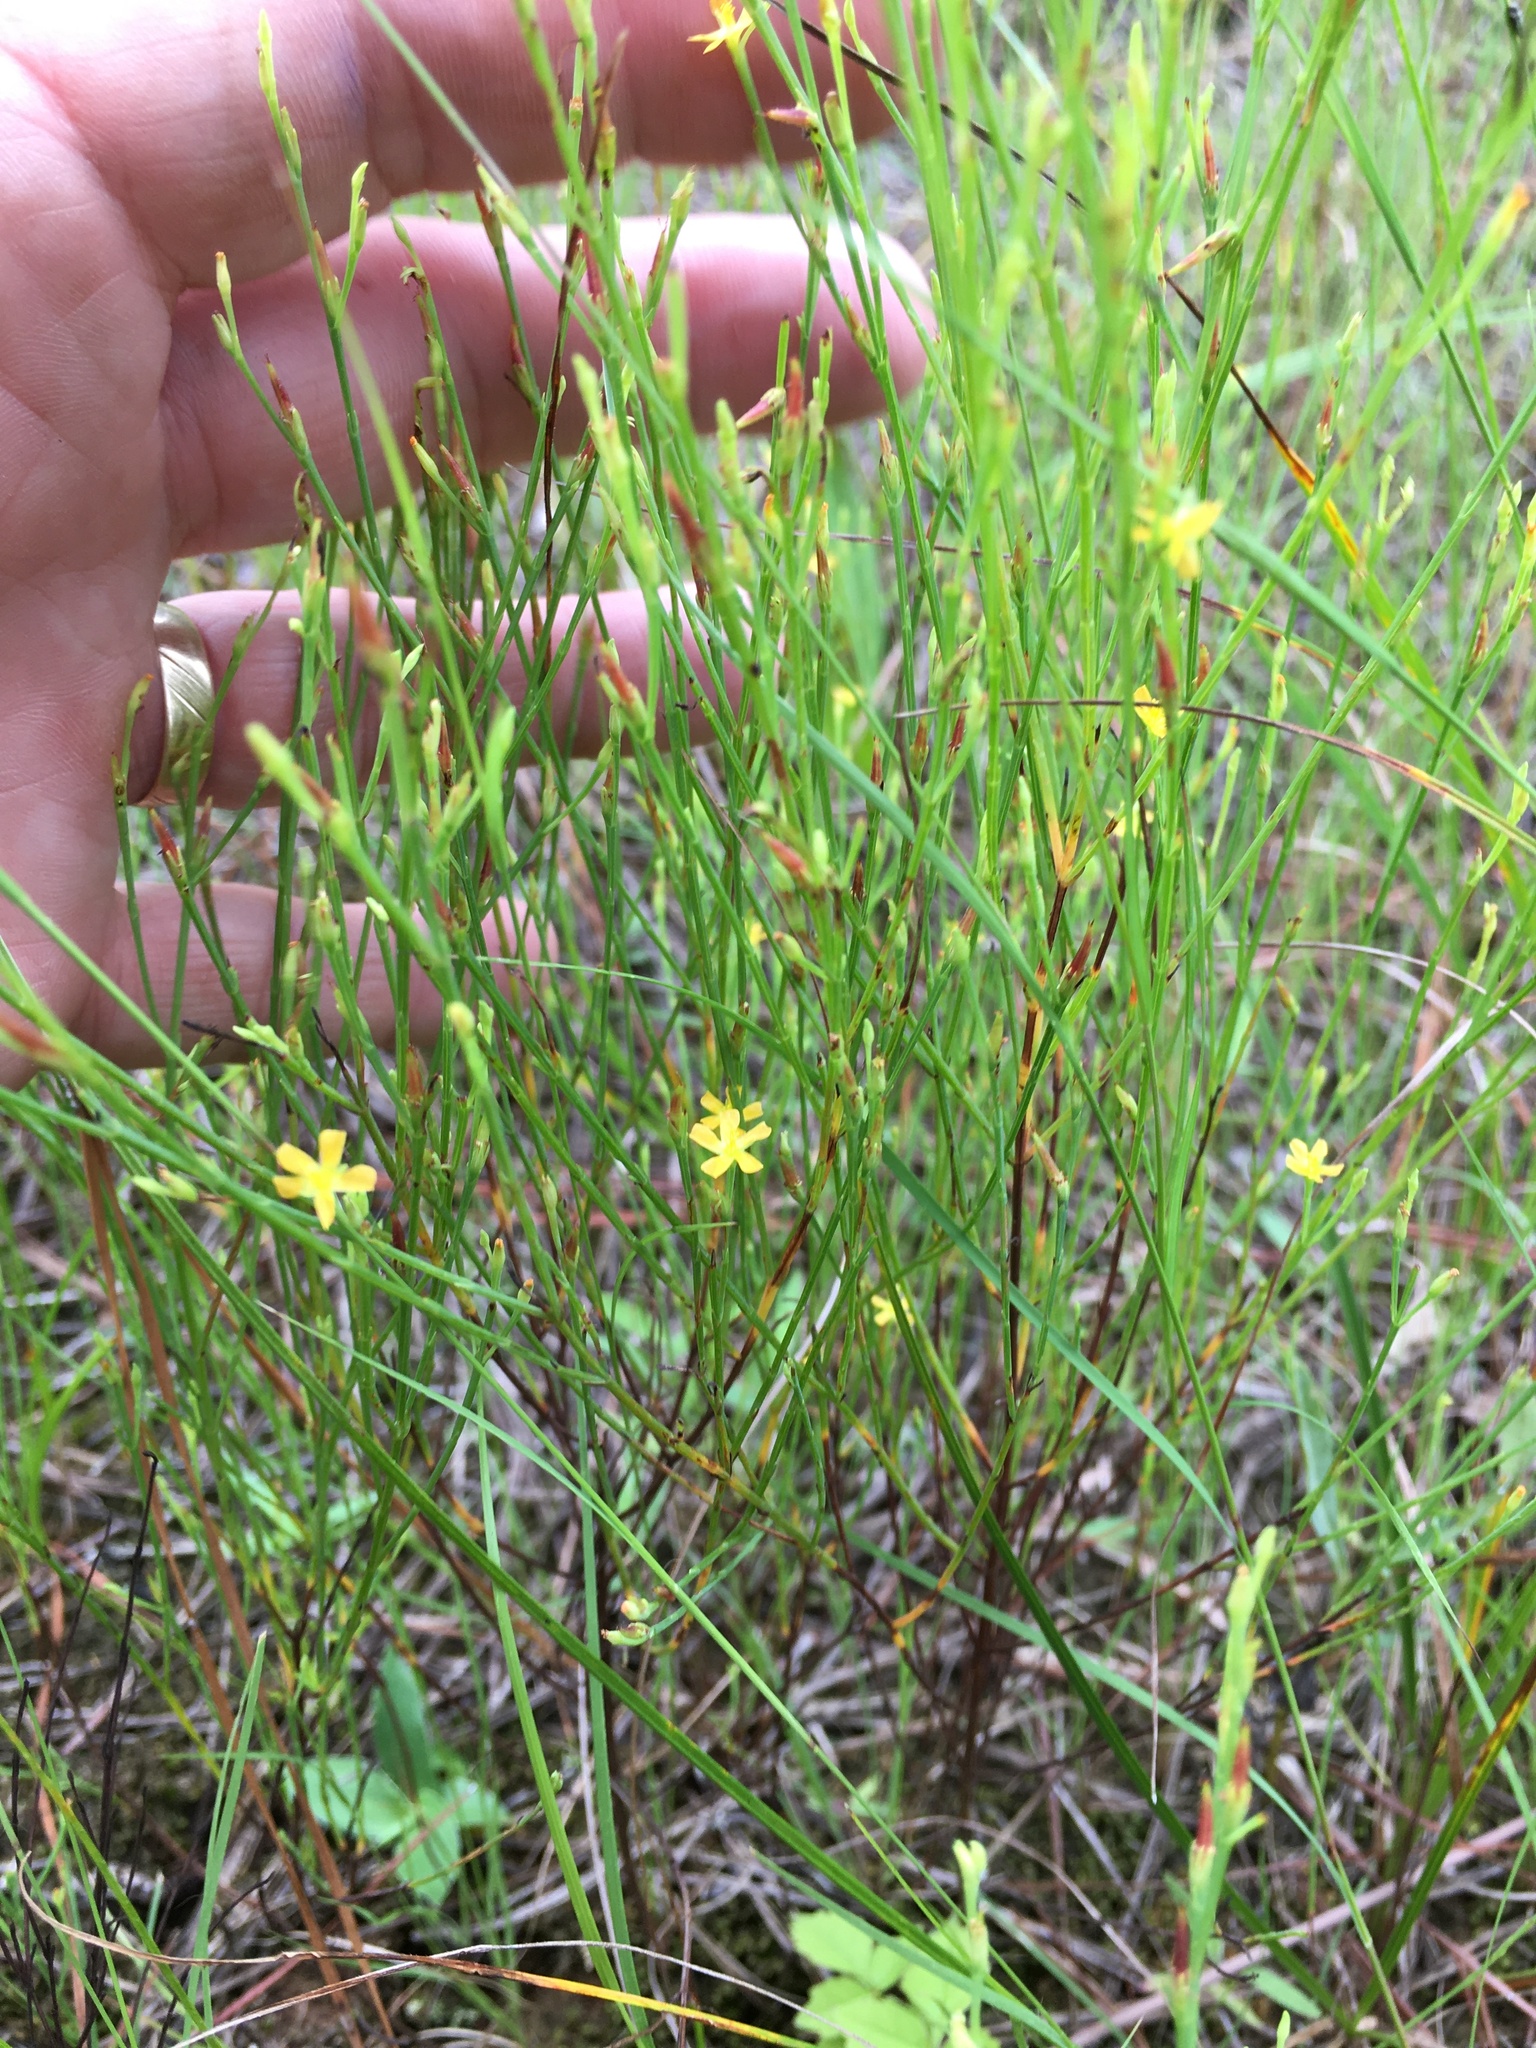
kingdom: Plantae
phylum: Tracheophyta
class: Magnoliopsida
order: Malpighiales
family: Hypericaceae
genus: Hypericum
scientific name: Hypericum gentianoides
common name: Gentian-leaved st. john's-wort
